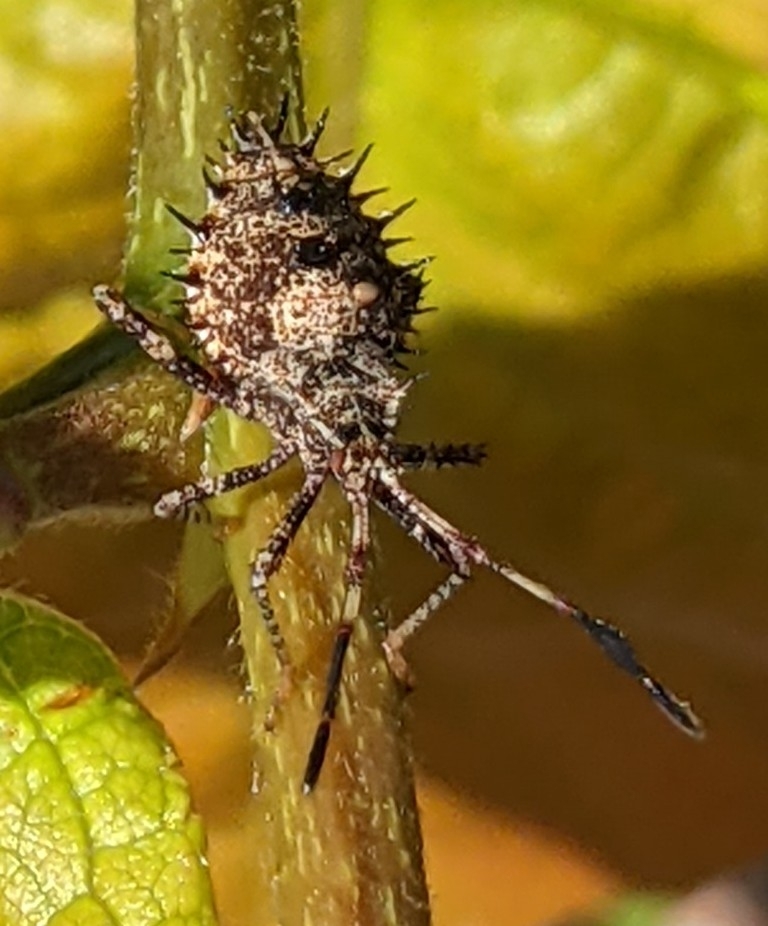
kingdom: Animalia
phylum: Arthropoda
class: Insecta
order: Hemiptera
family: Coreidae
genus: Euthochtha
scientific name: Euthochtha galeator
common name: Helmeted squash bug
